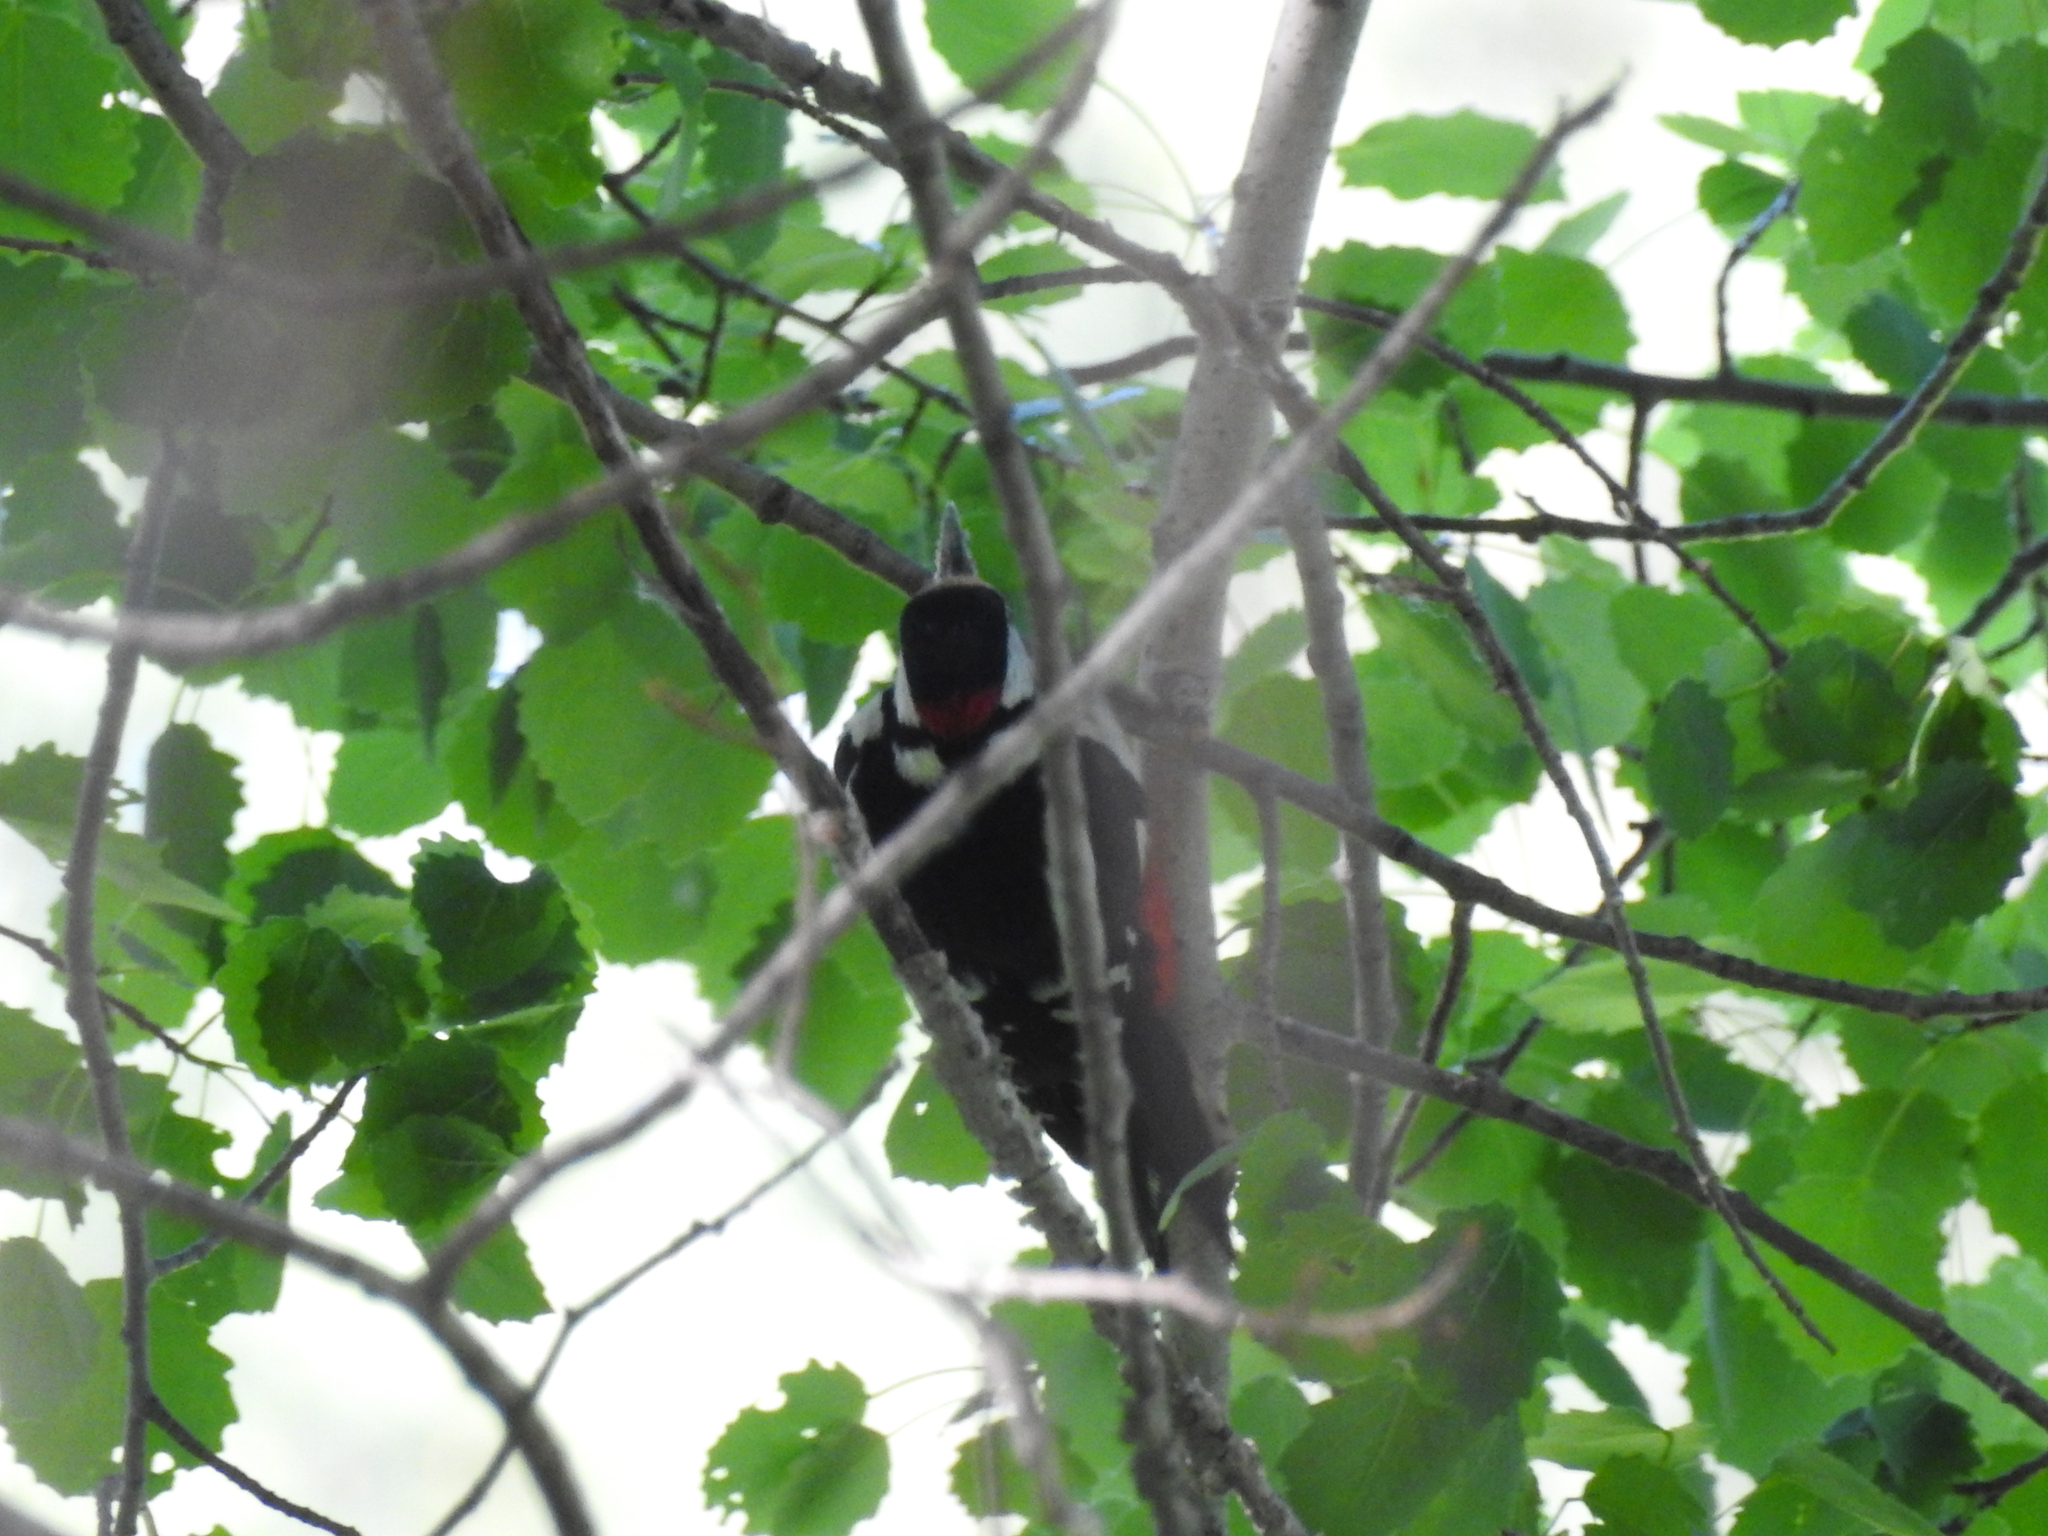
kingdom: Animalia
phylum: Chordata
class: Aves
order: Piciformes
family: Picidae
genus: Dendrocopos
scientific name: Dendrocopos major
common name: Great spotted woodpecker
